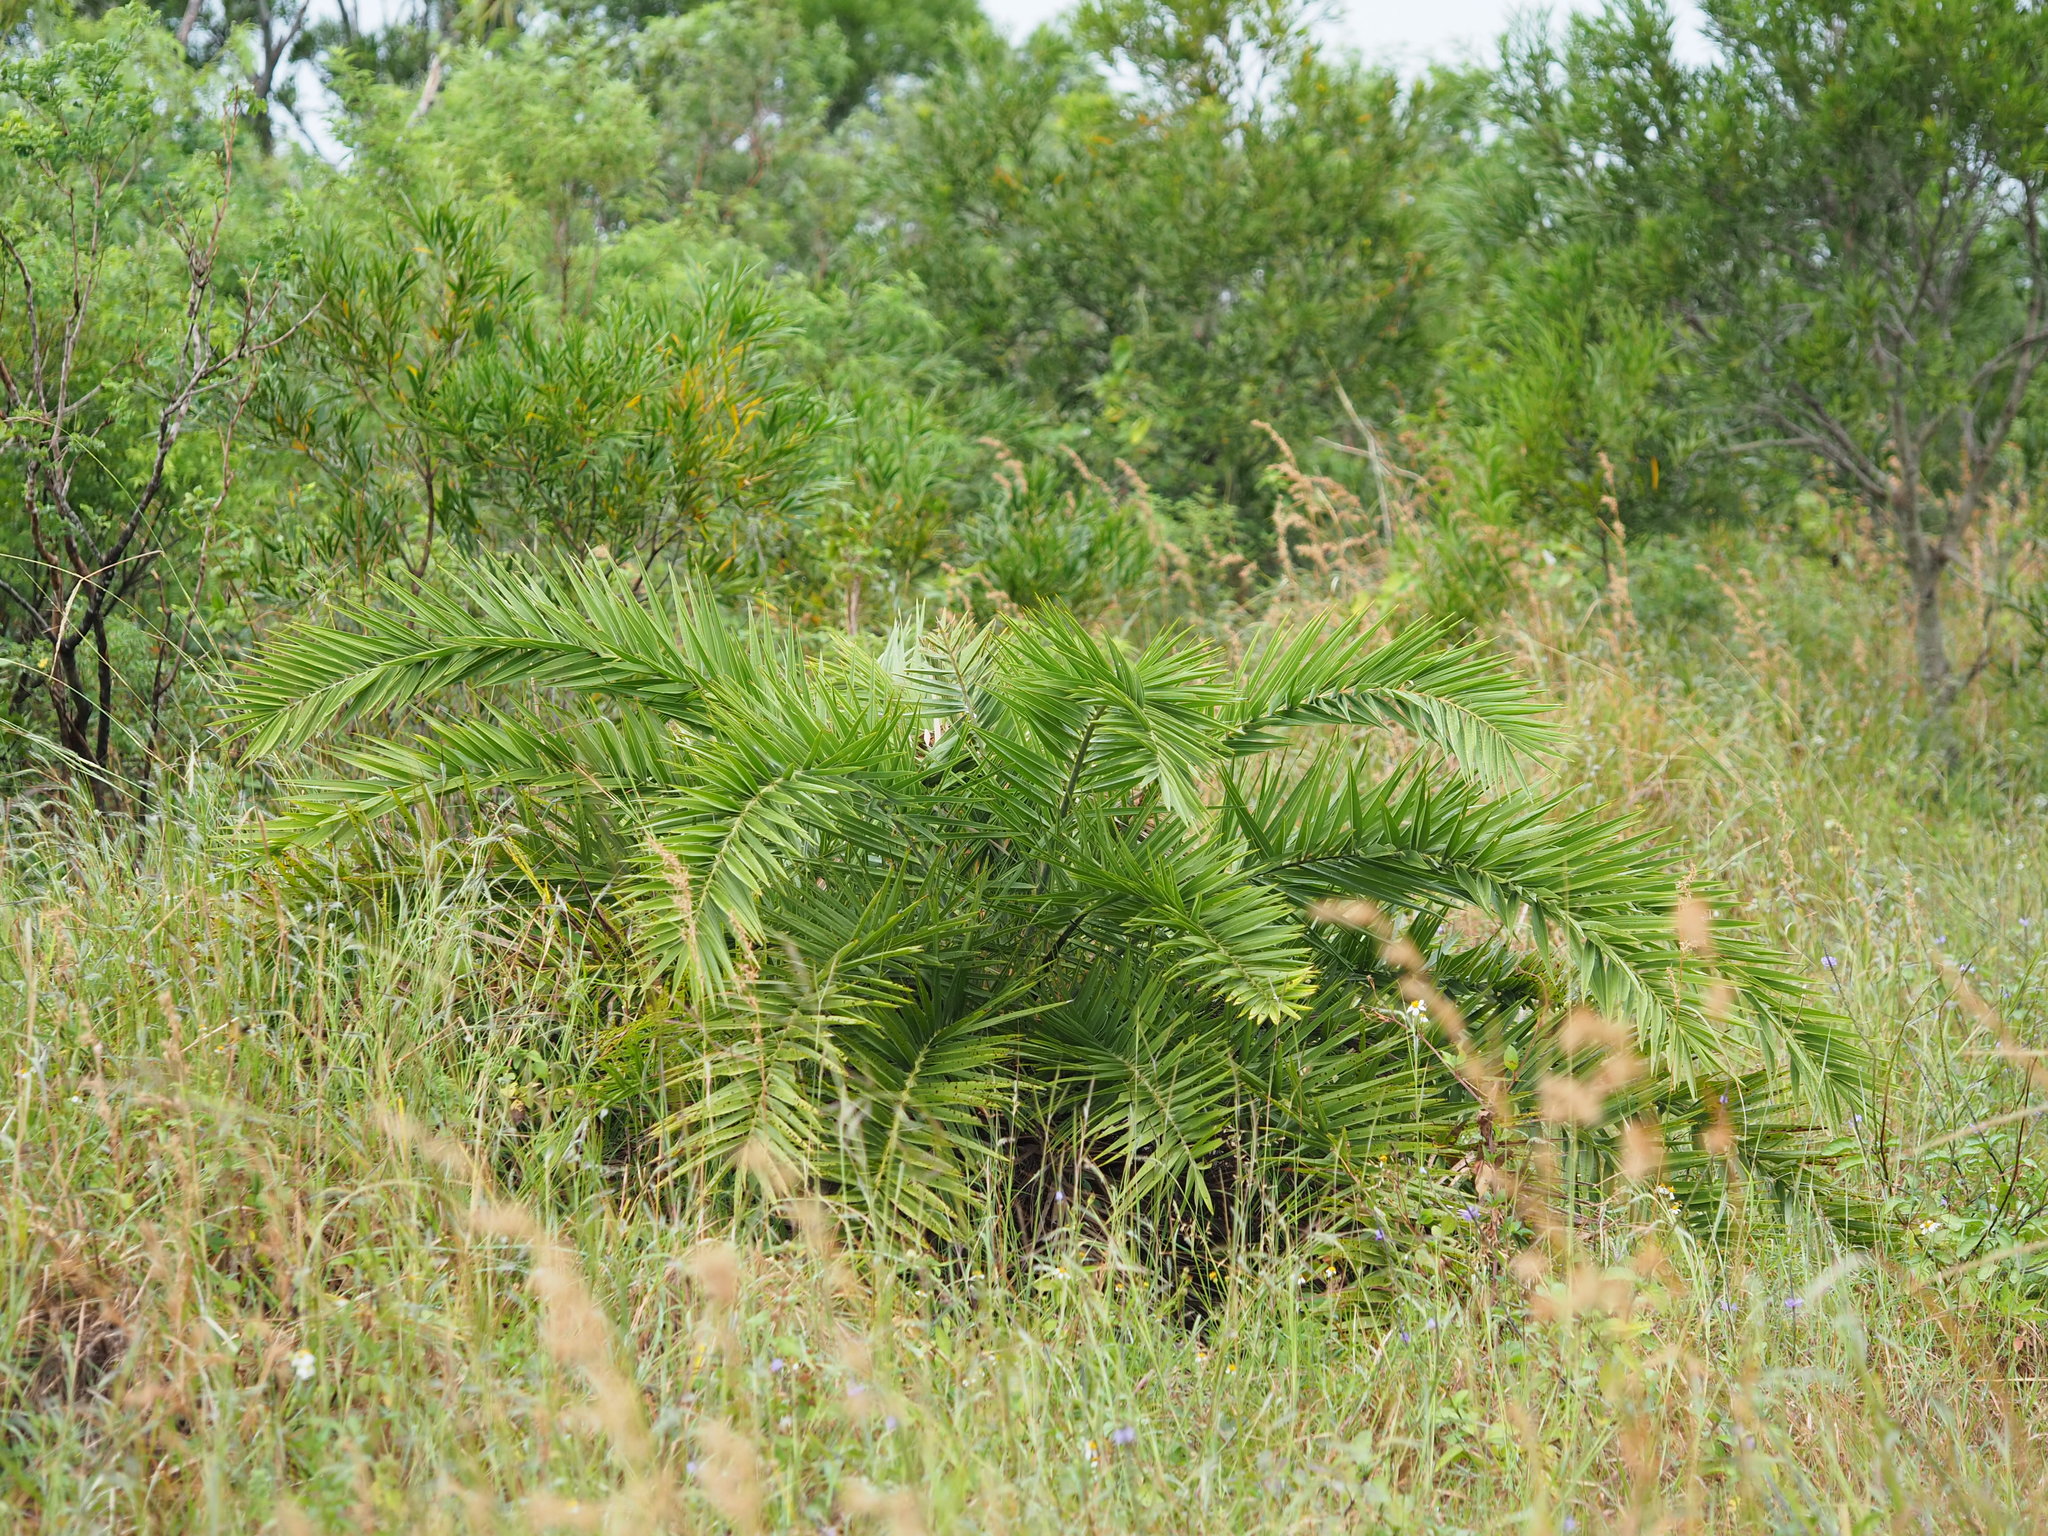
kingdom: Plantae
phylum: Tracheophyta
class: Liliopsida
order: Arecales
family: Arecaceae
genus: Phoenix
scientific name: Phoenix loureiroi
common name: Loureiro's palm
